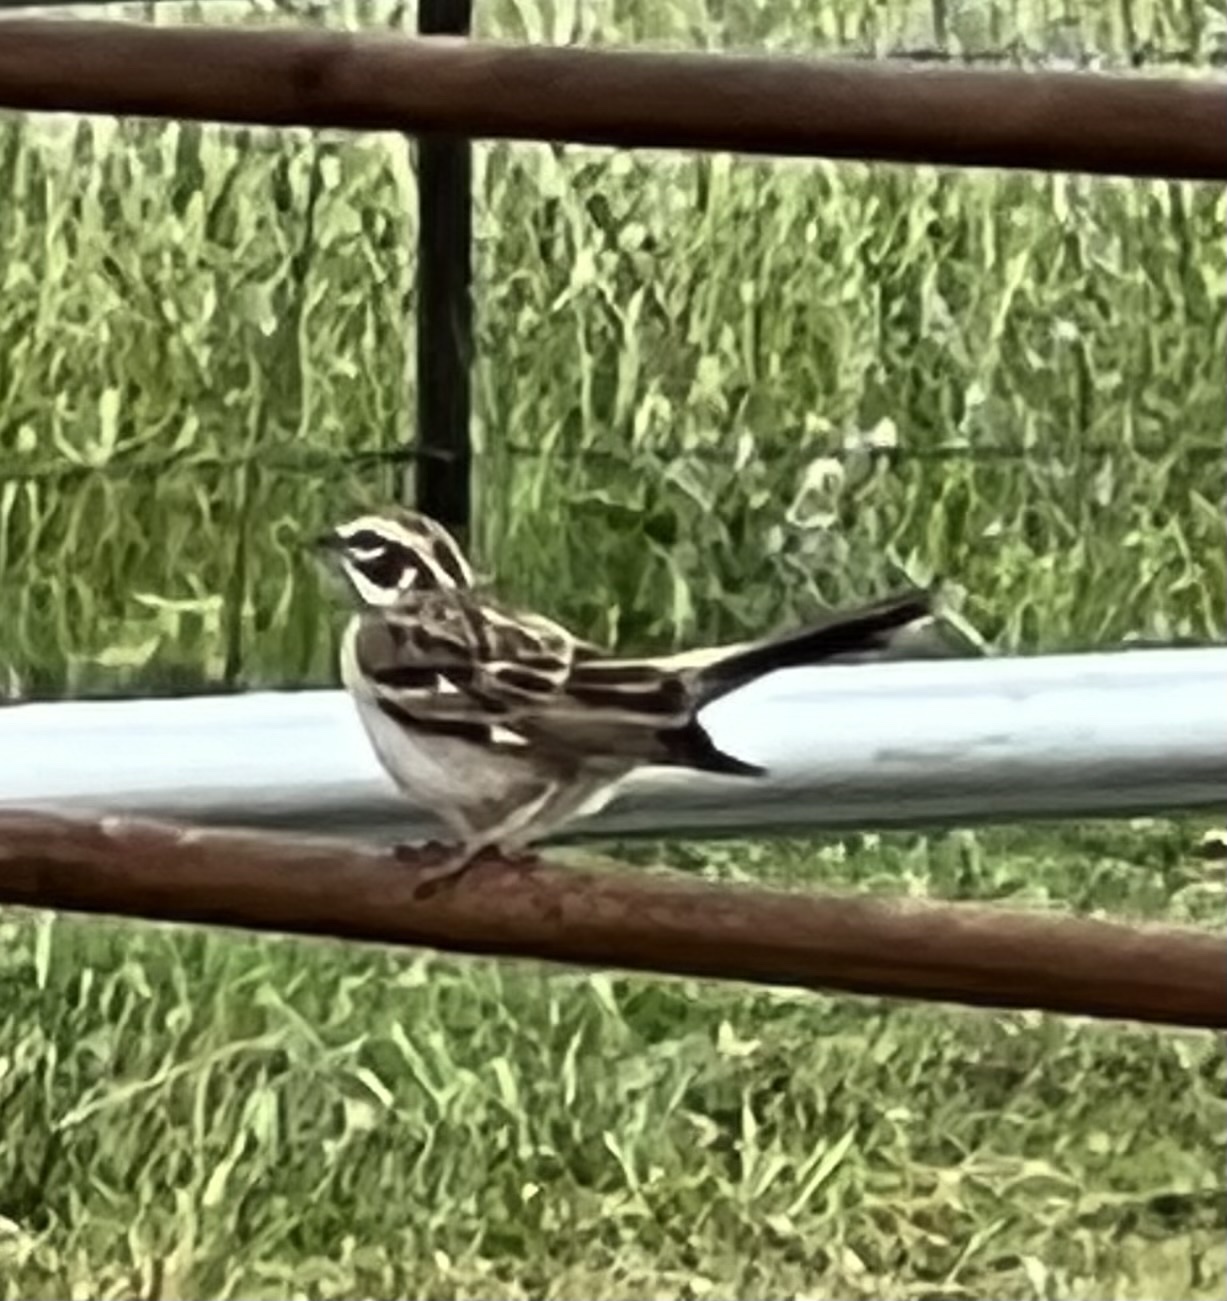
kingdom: Animalia
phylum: Chordata
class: Aves
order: Passeriformes
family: Passerellidae
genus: Chondestes
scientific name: Chondestes grammacus
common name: Lark sparrow
